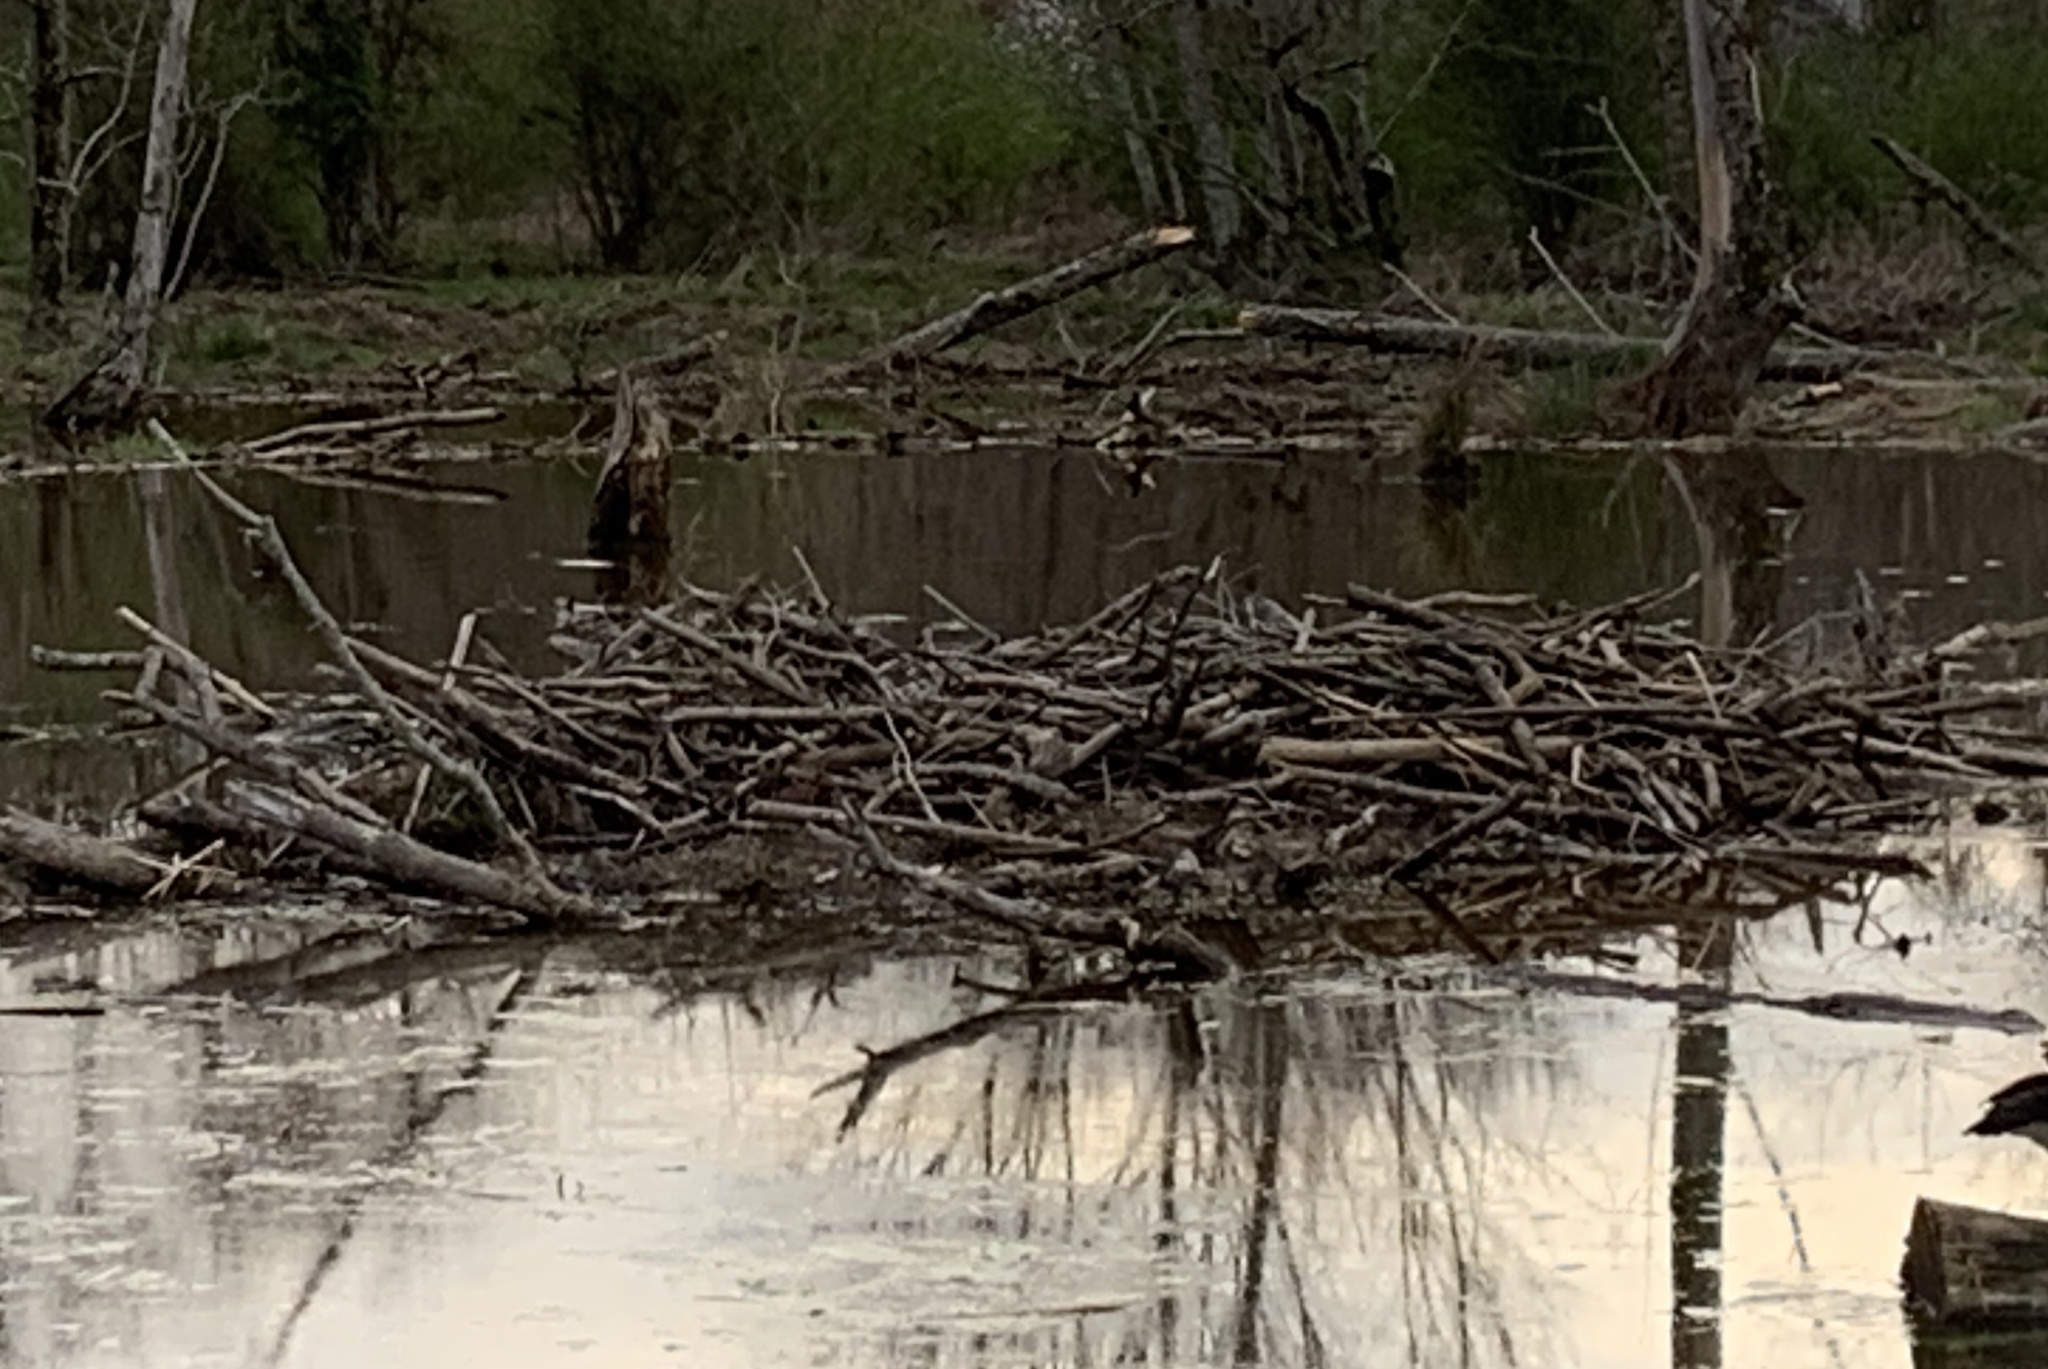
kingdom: Animalia
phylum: Chordata
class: Mammalia
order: Rodentia
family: Castoridae
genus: Castor
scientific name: Castor canadensis
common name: American beaver
